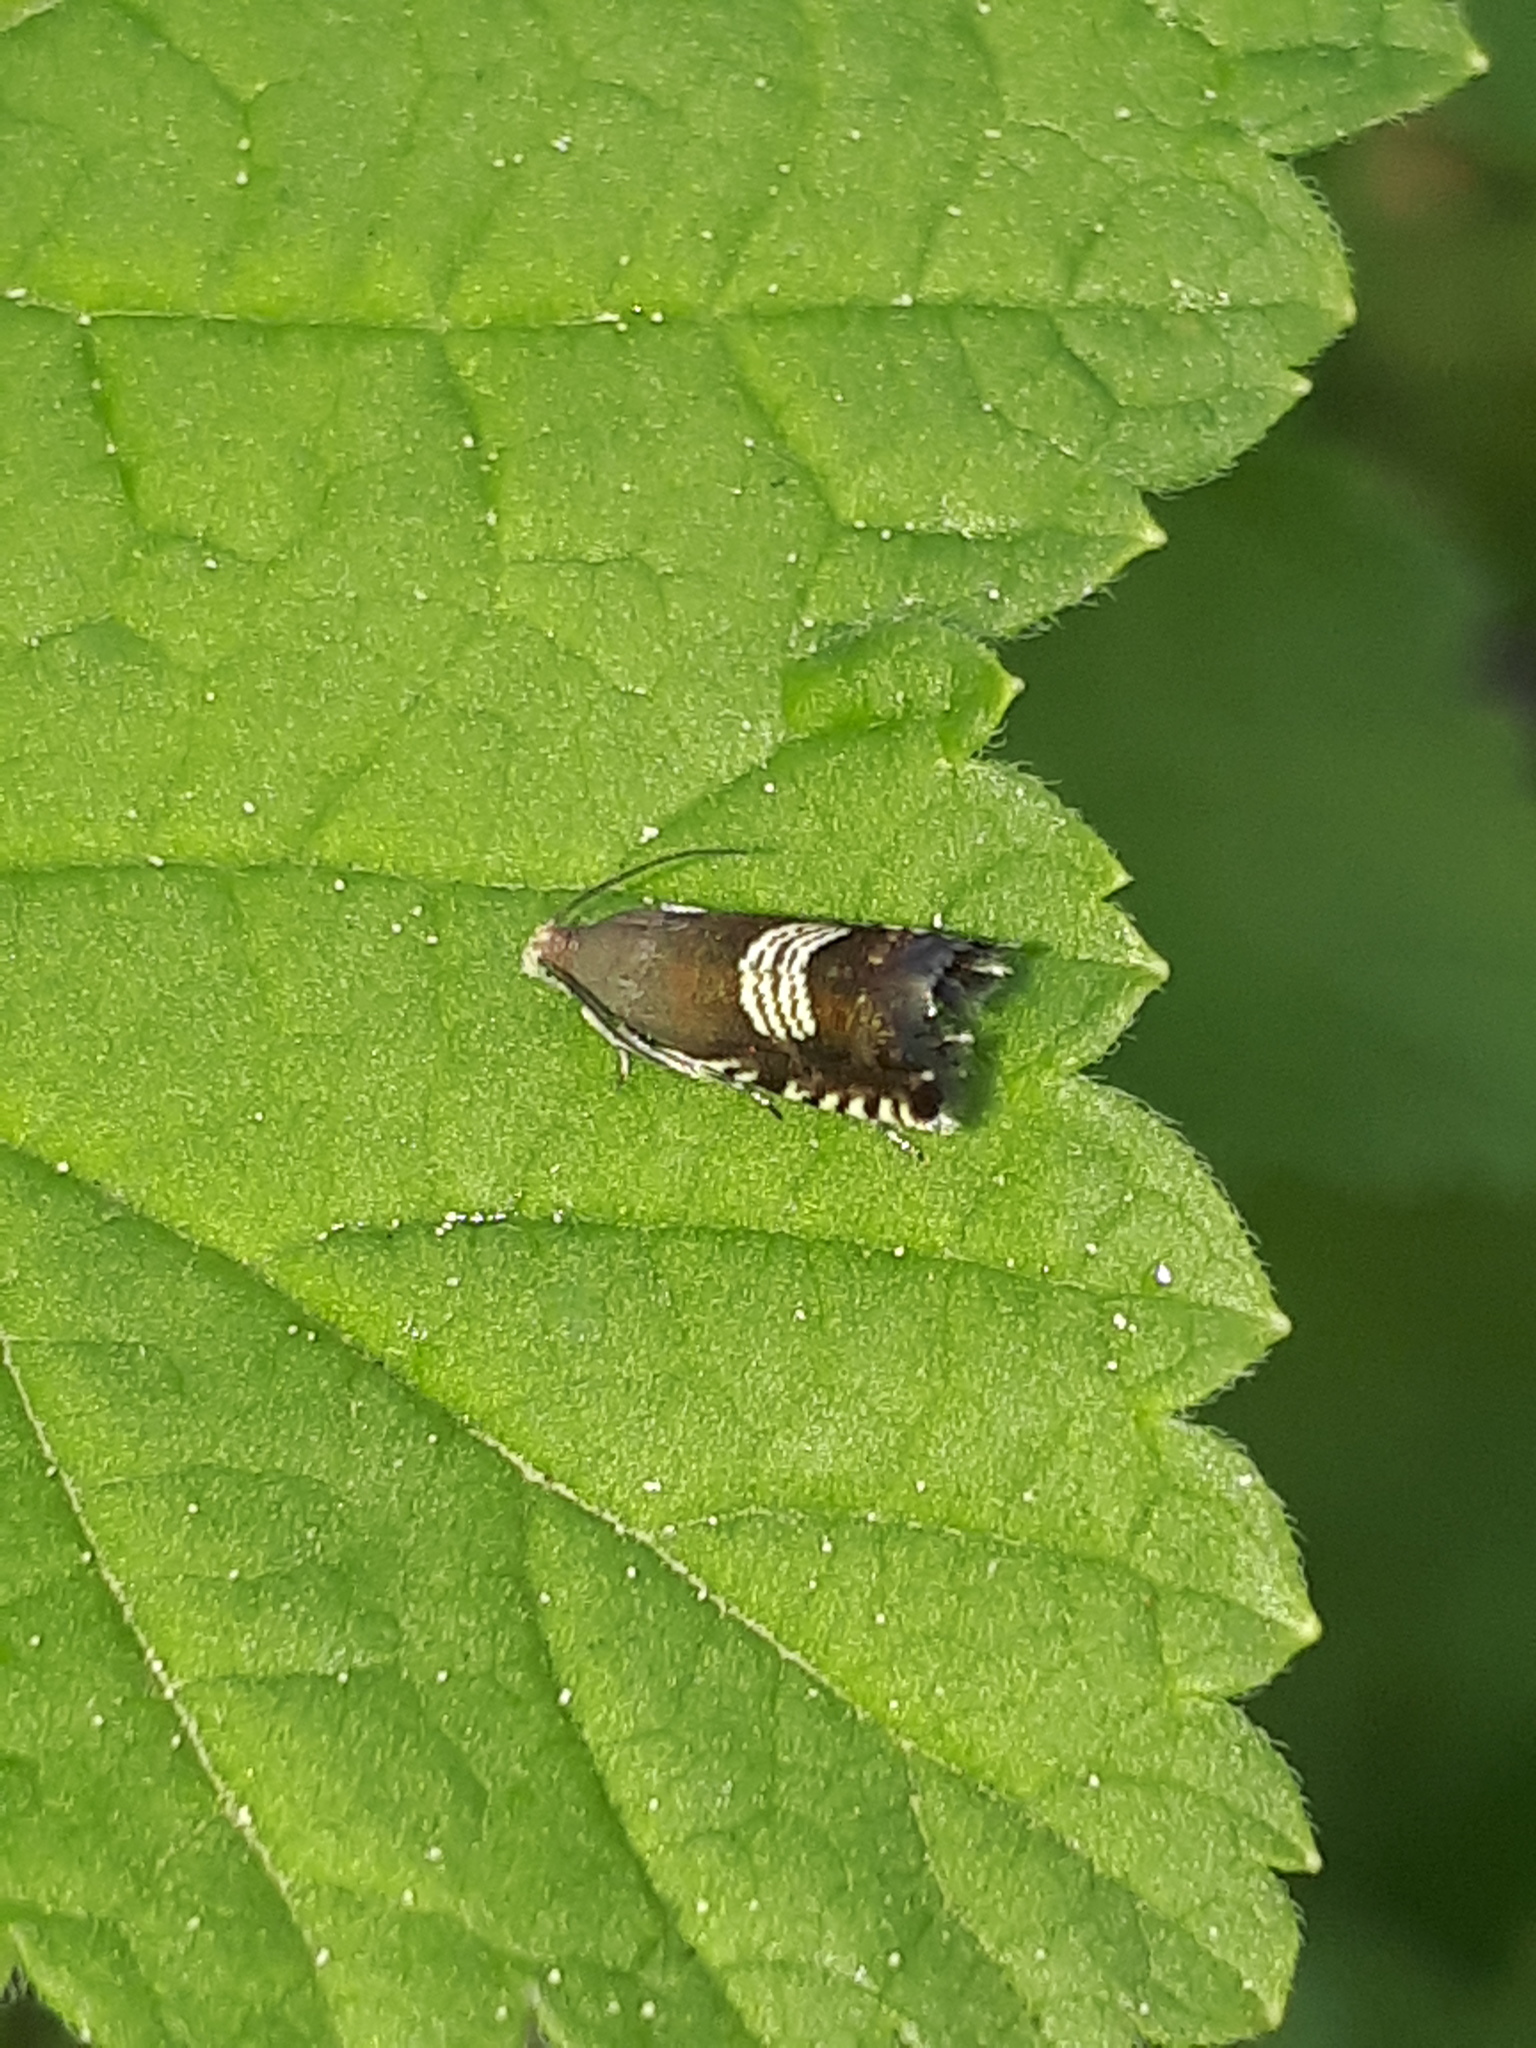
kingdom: Animalia
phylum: Arthropoda
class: Insecta
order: Lepidoptera
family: Tortricidae
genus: Grapholita
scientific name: Grapholita compositella
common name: Triple-stripe piercer
